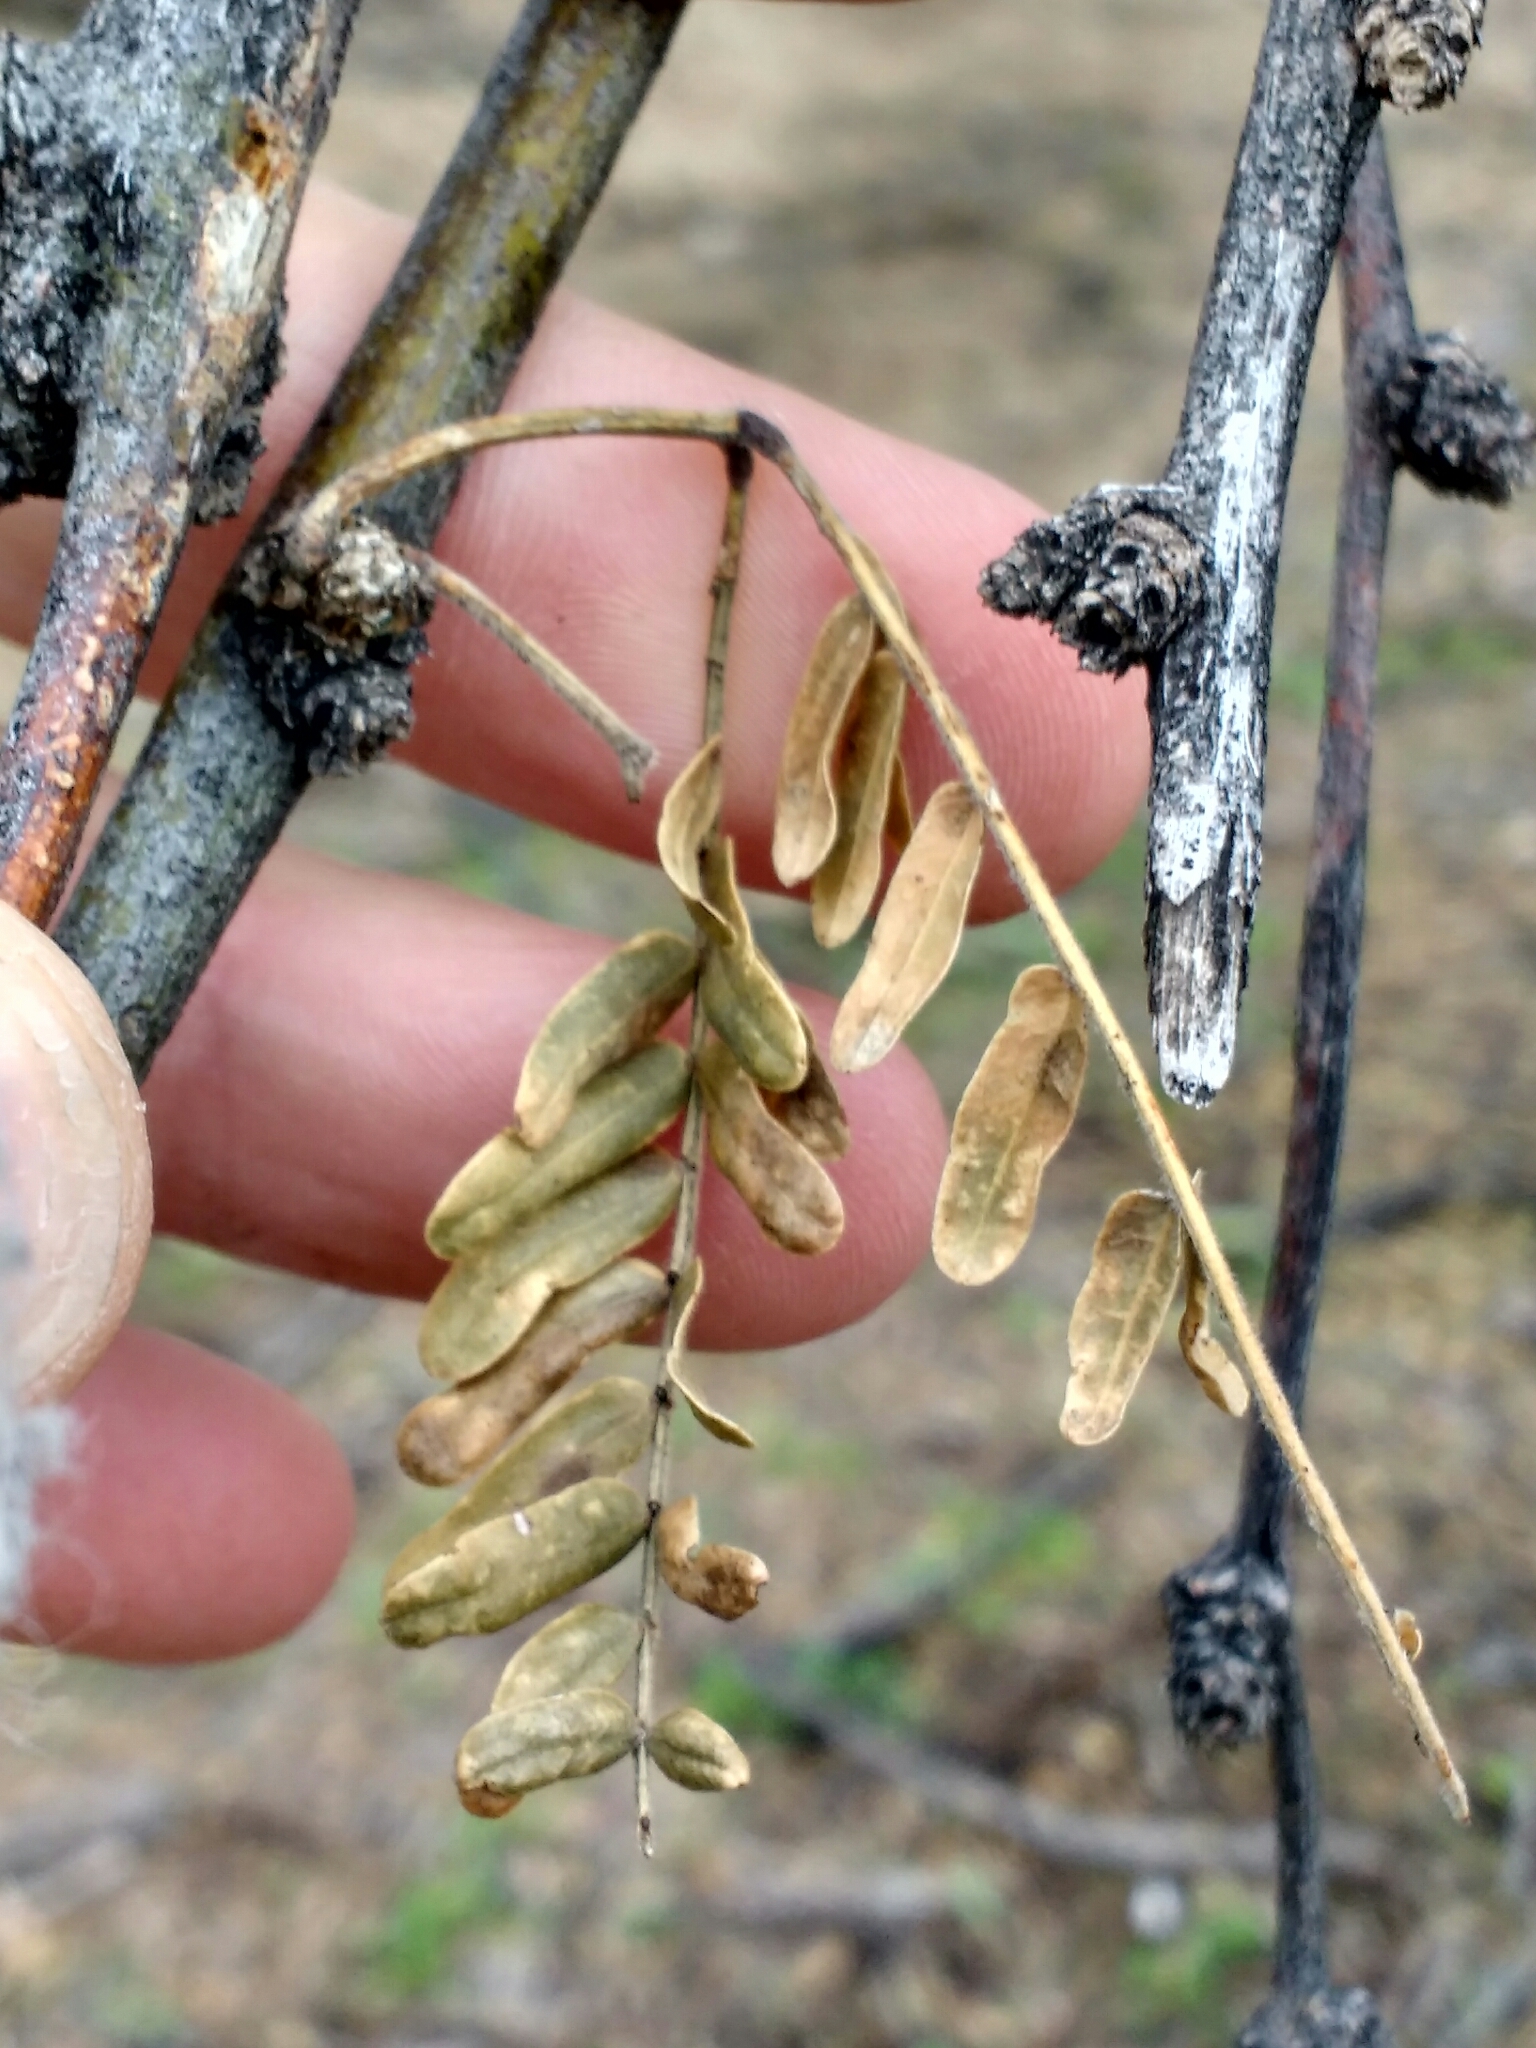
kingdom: Plantae
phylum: Tracheophyta
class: Magnoliopsida
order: Fabales
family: Fabaceae
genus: Prosopis
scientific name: Prosopis velutina
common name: Velvet mesquite
